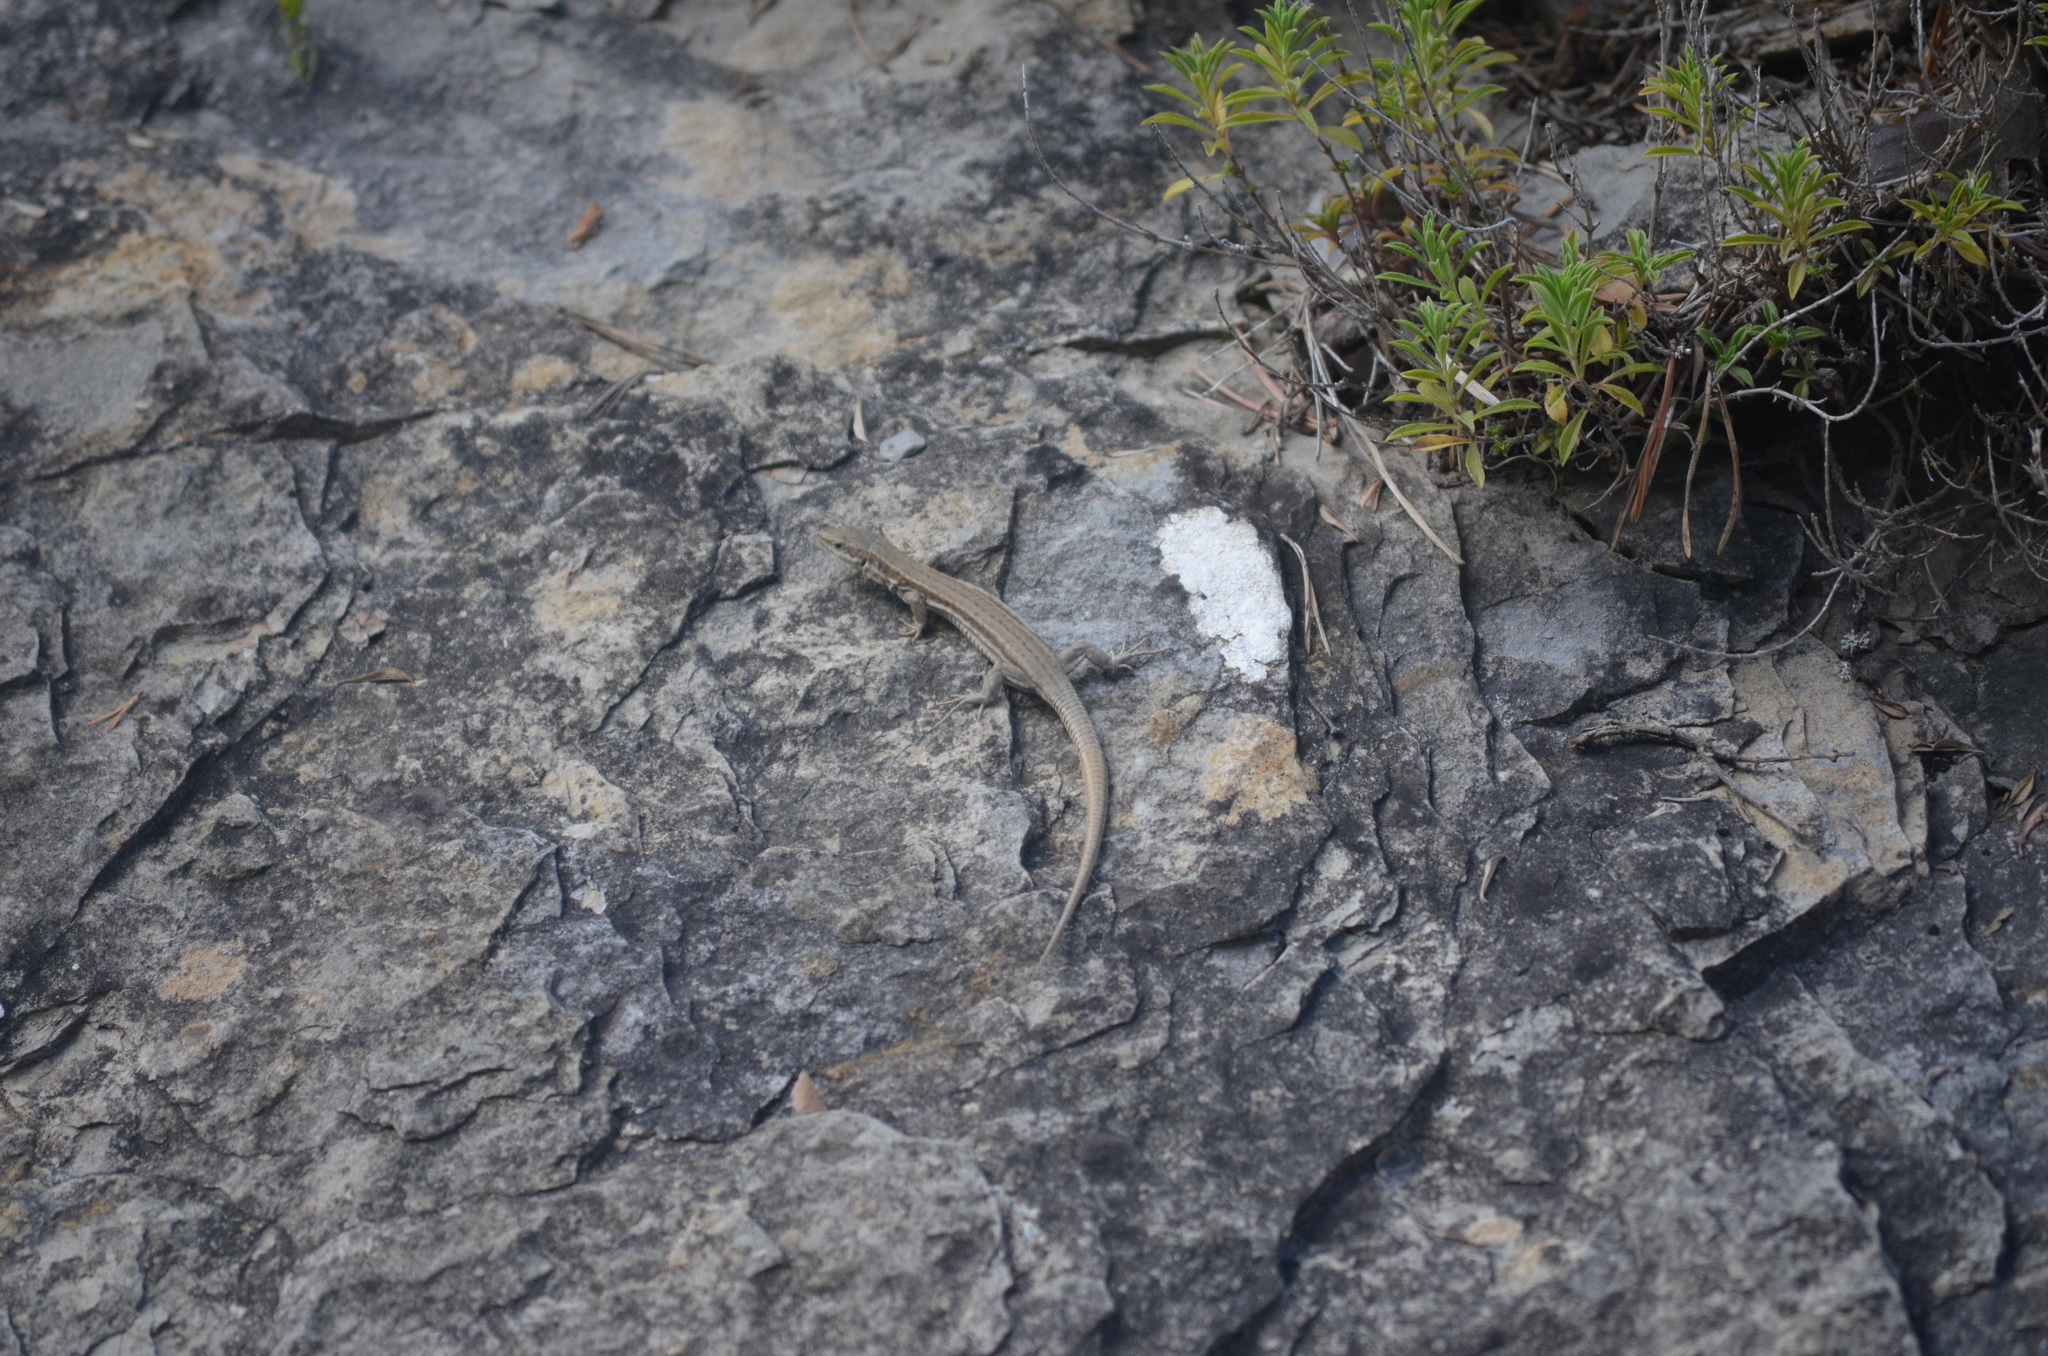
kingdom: Animalia
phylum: Chordata
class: Squamata
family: Lacertidae
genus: Podarcis
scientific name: Podarcis muralis
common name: Common wall lizard
